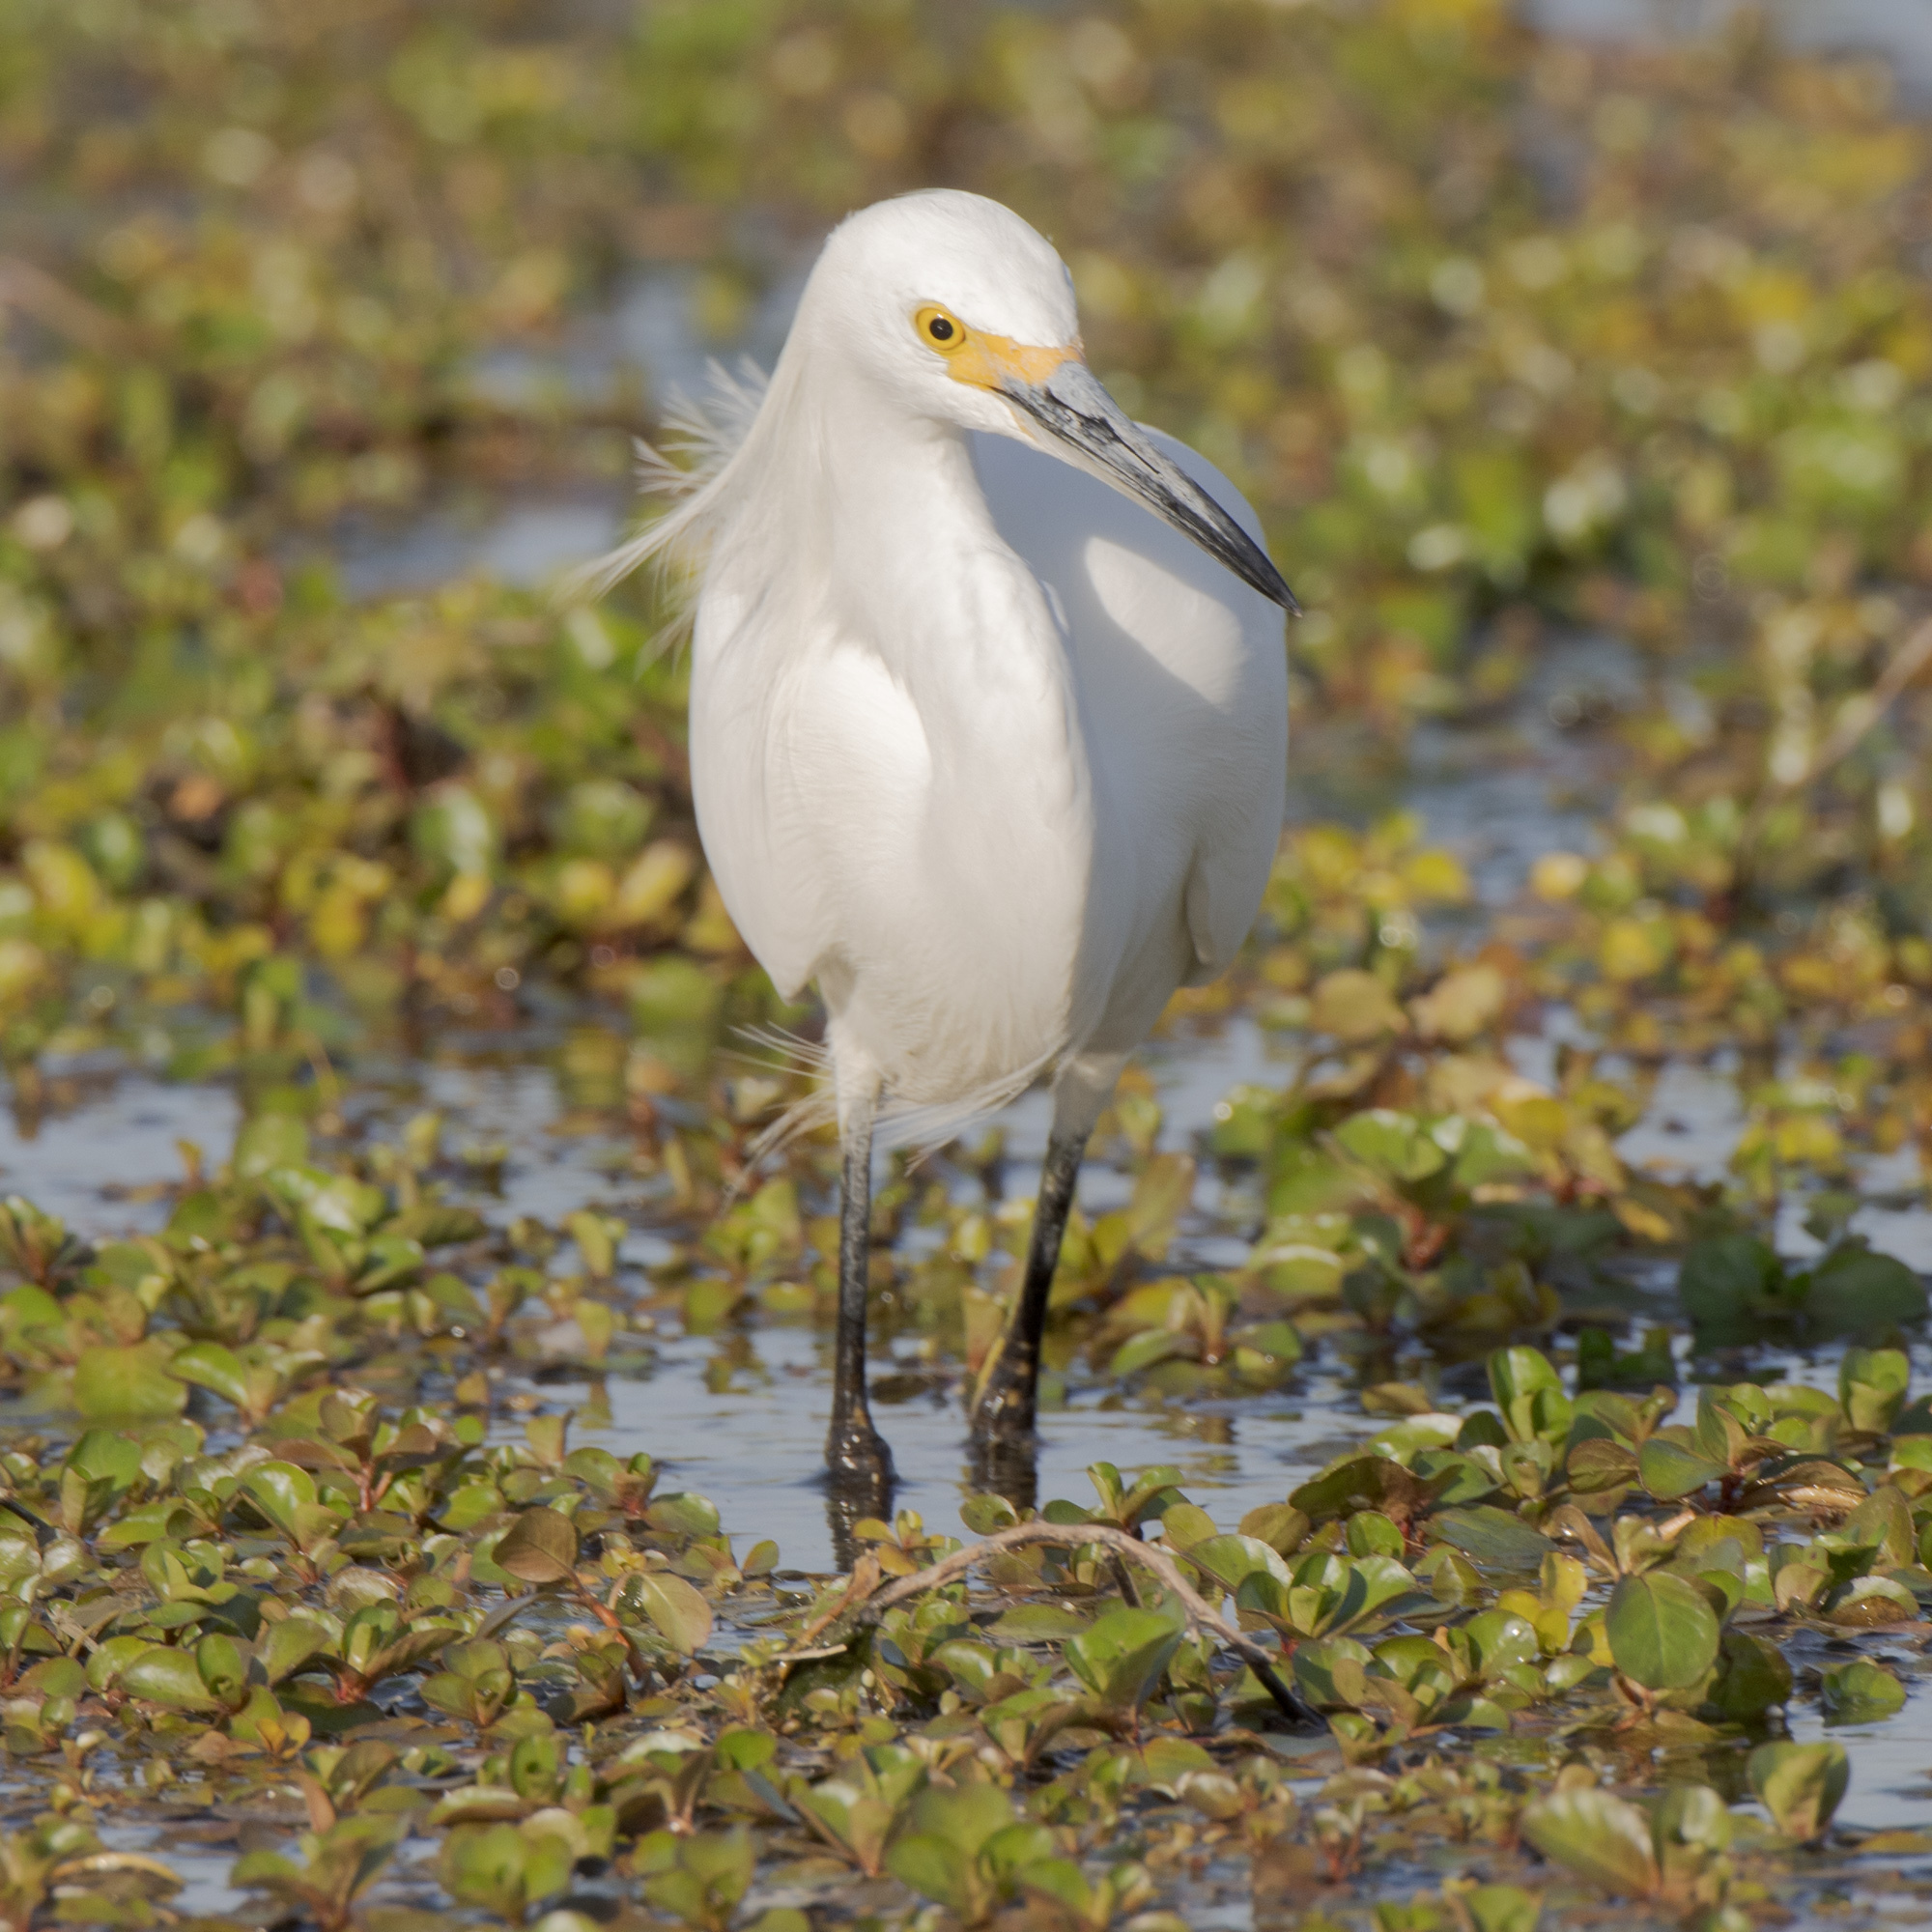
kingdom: Animalia
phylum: Chordata
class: Aves
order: Pelecaniformes
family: Ardeidae
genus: Egretta
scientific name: Egretta thula
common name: Snowy egret
